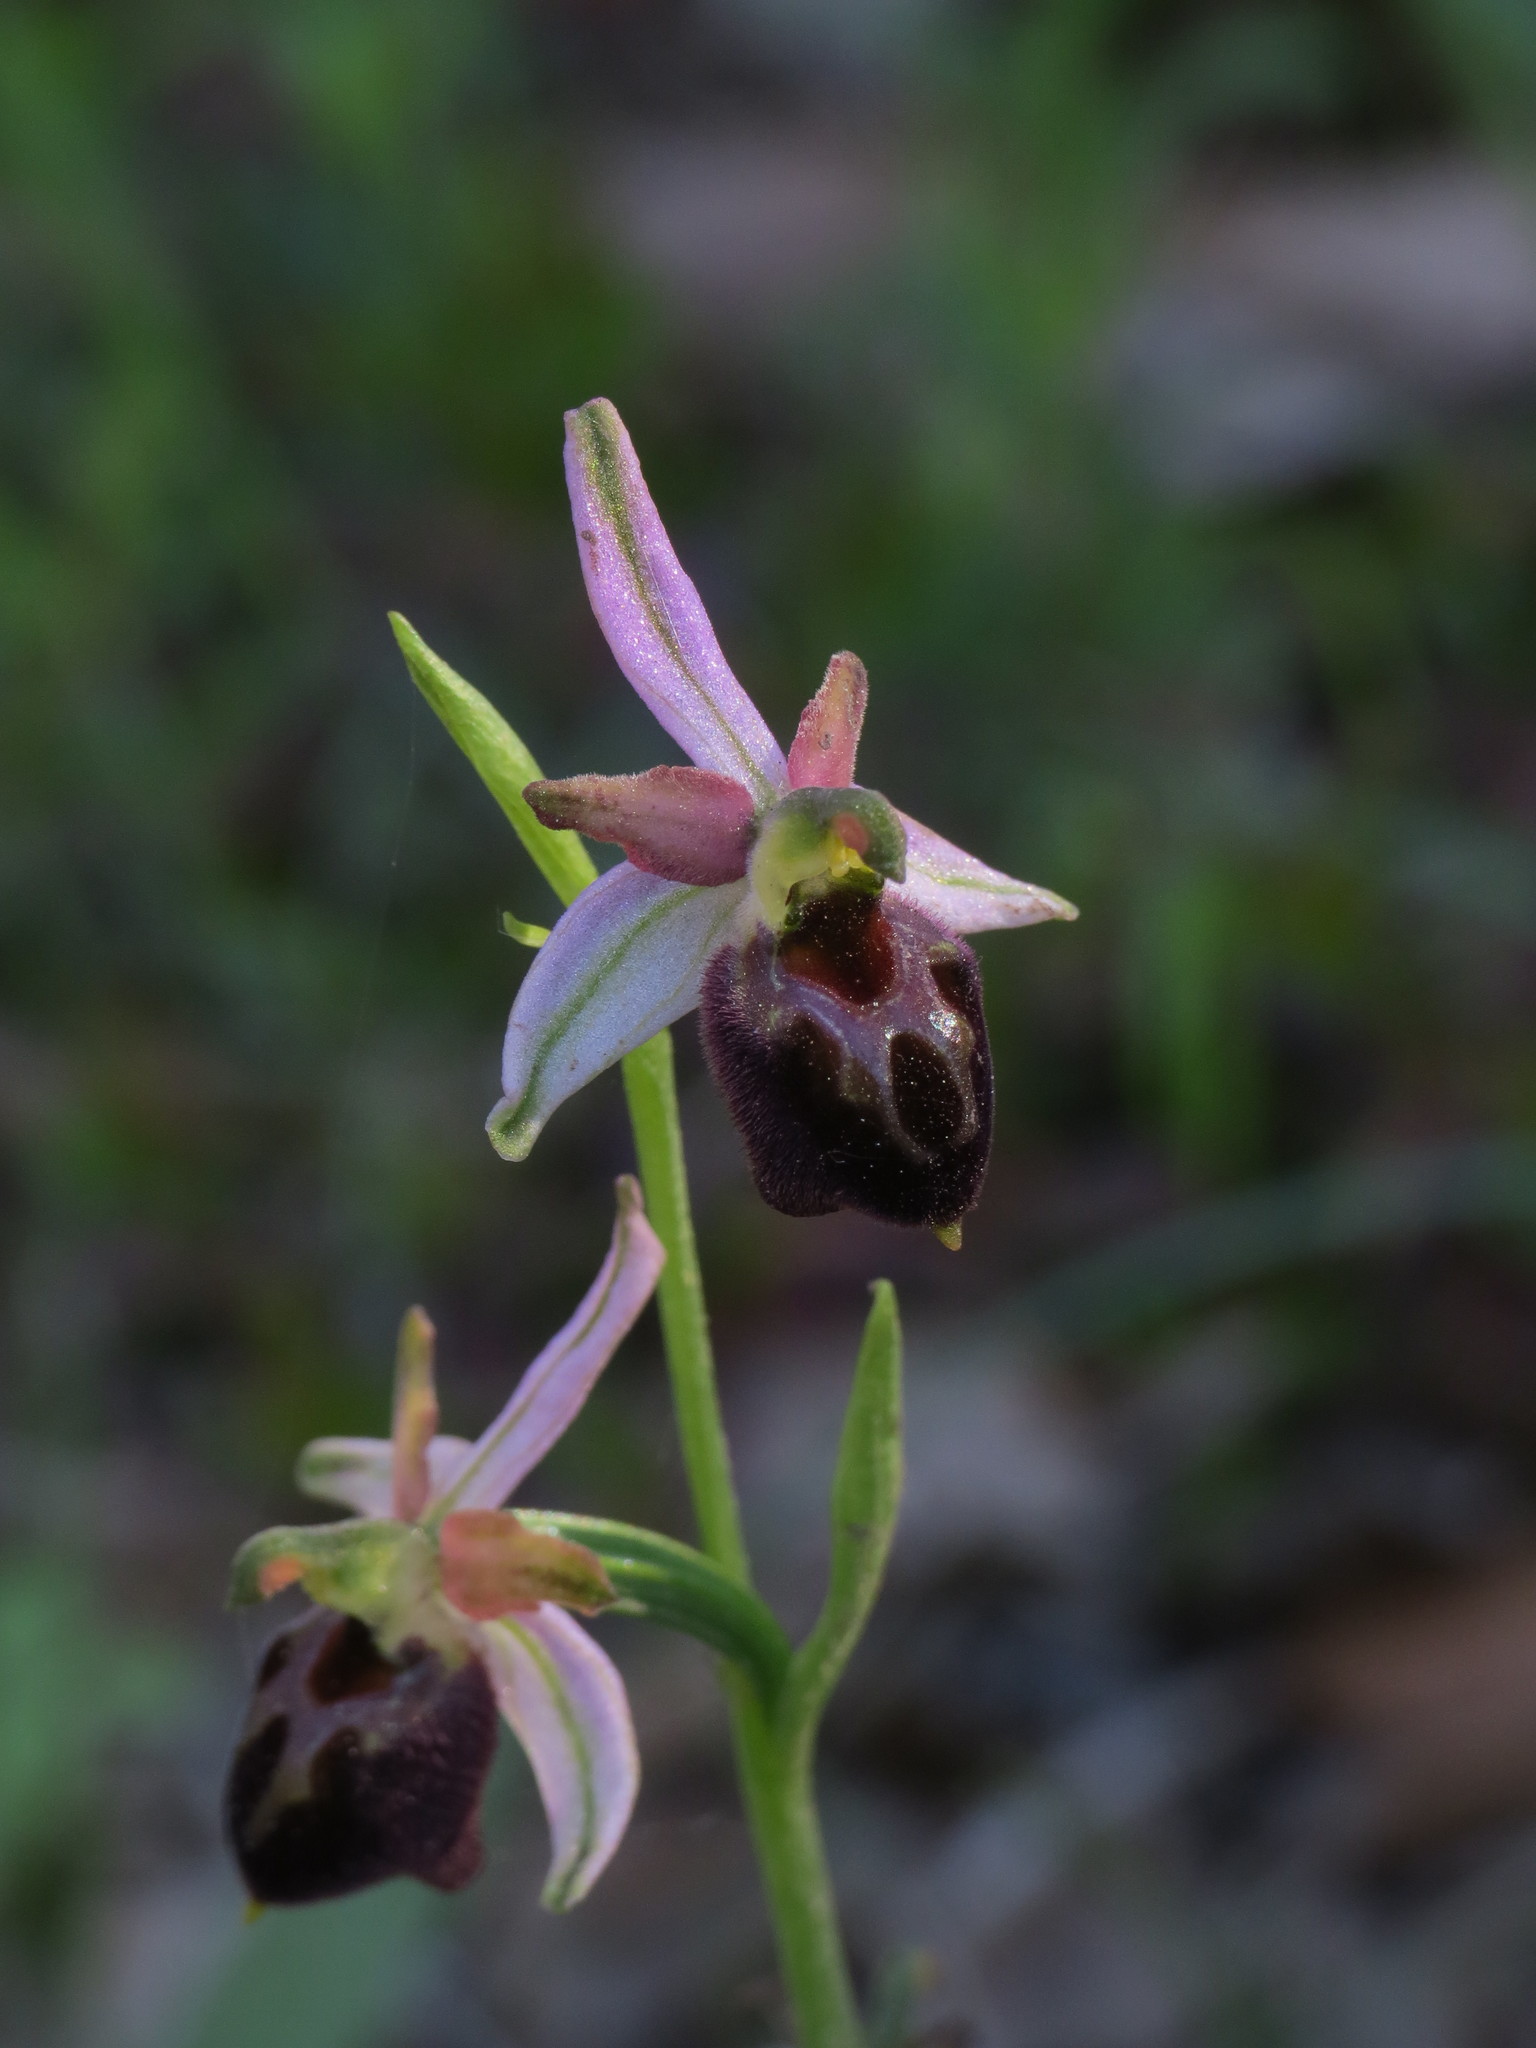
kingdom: Plantae
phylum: Tracheophyta
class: Liliopsida
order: Asparagales
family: Orchidaceae
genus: Ophrys
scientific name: Ophrys arachnitiformis
